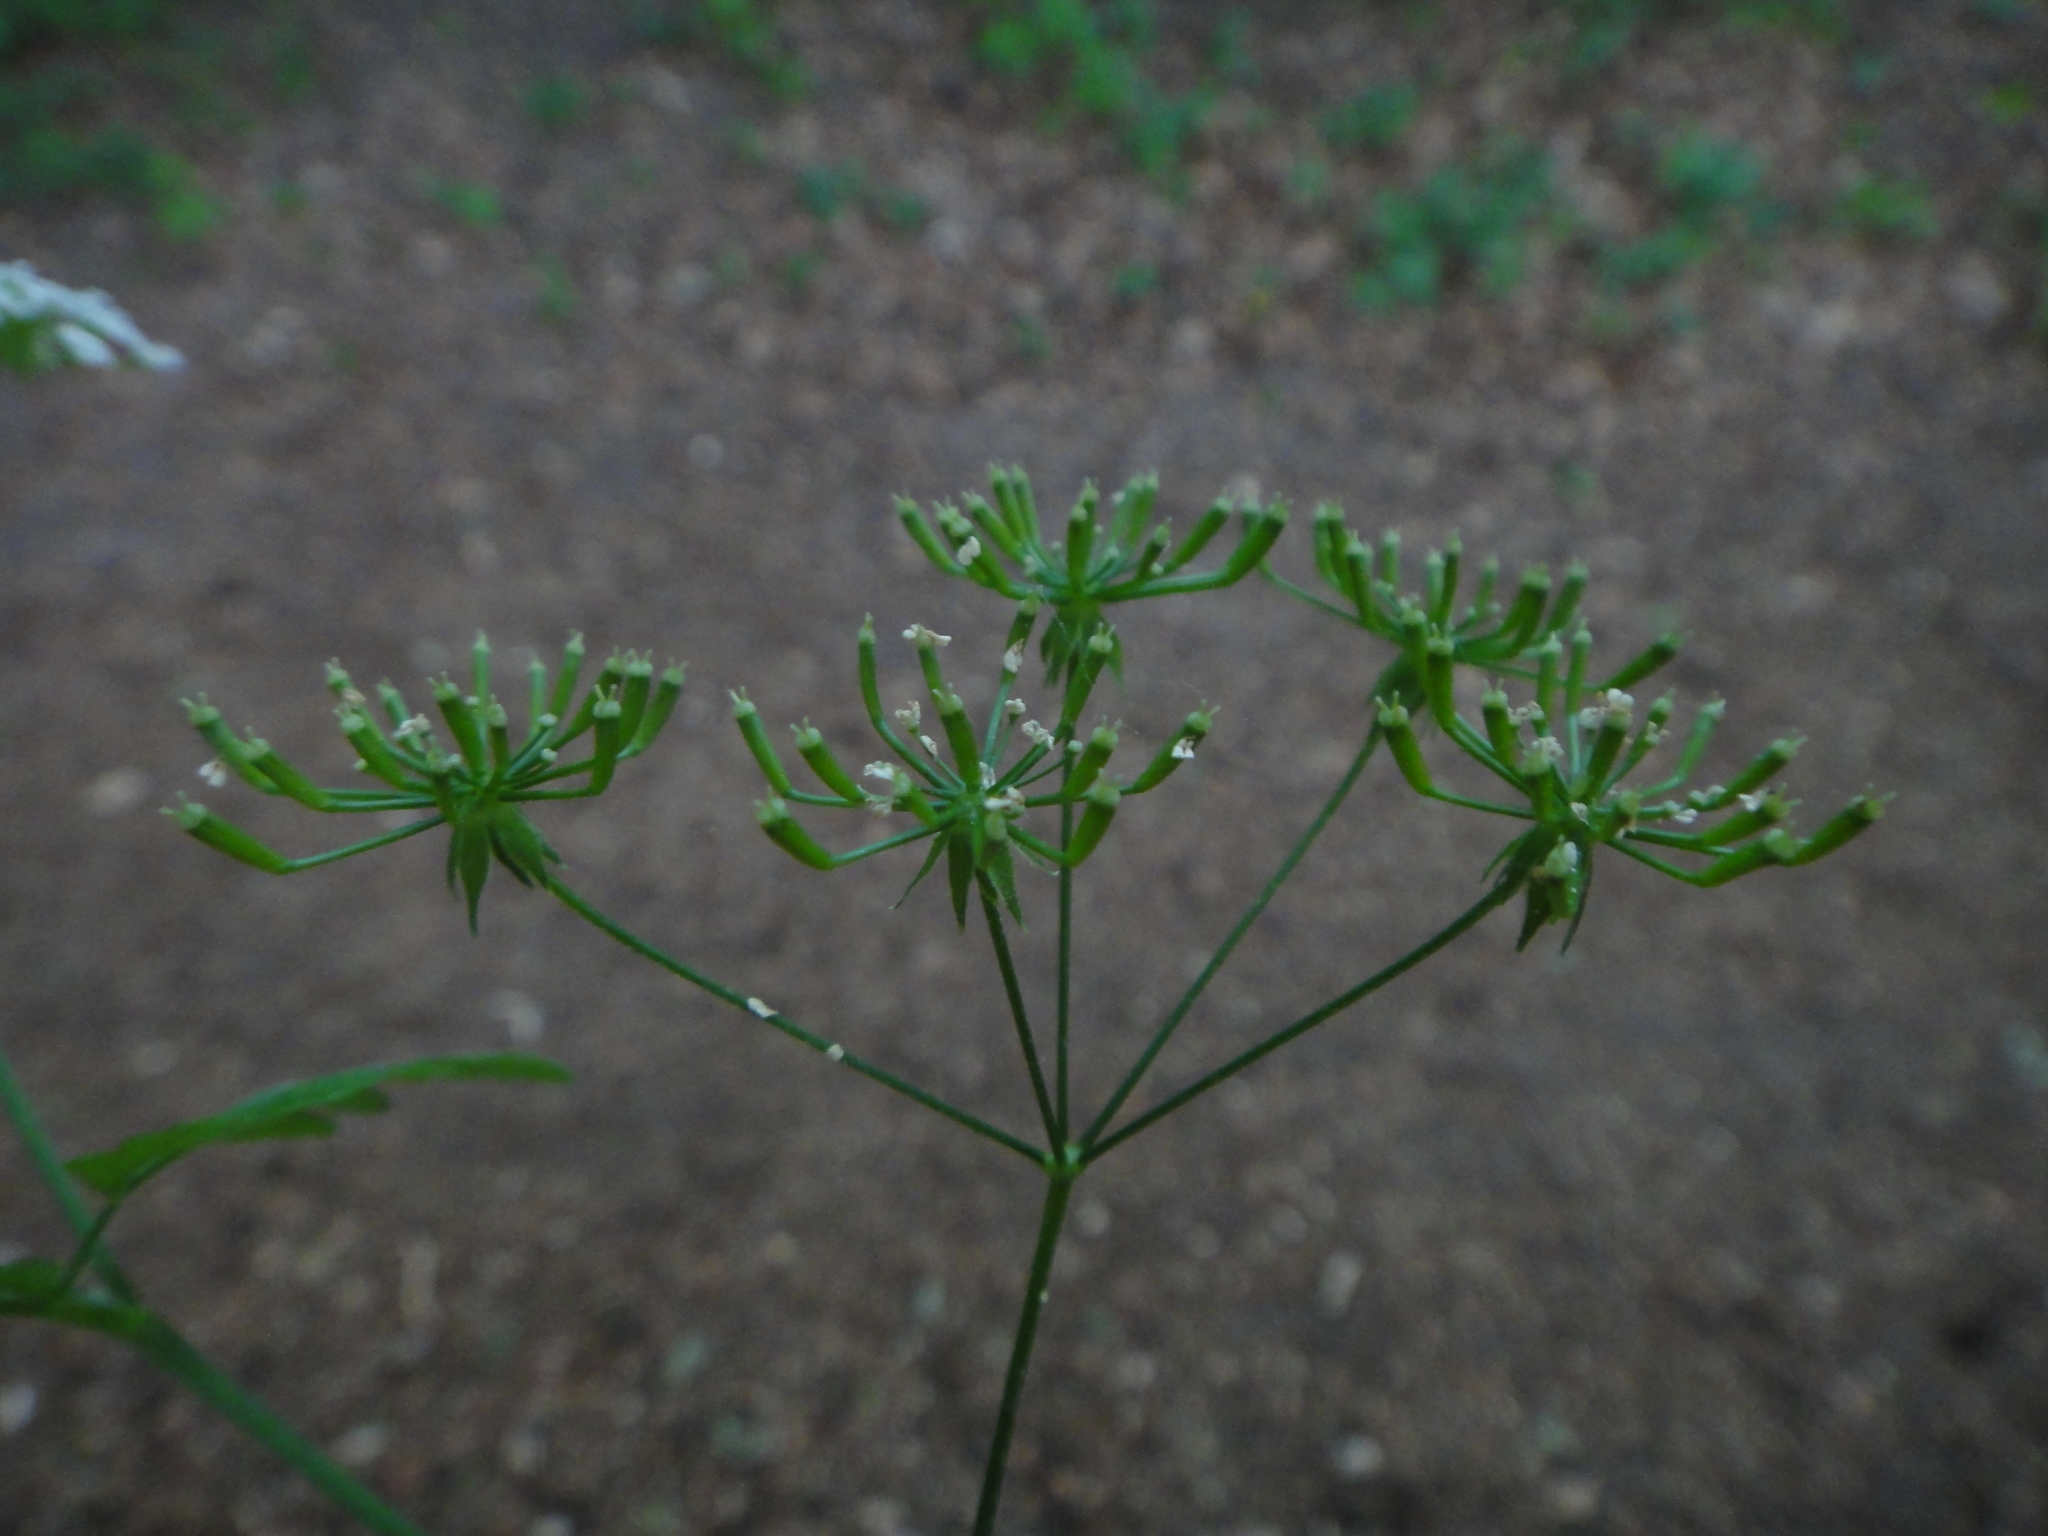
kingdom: Plantae
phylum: Tracheophyta
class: Magnoliopsida
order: Apiales
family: Apiaceae
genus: Chaerophyllum
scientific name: Chaerophyllum temulum
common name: Rough chervil
